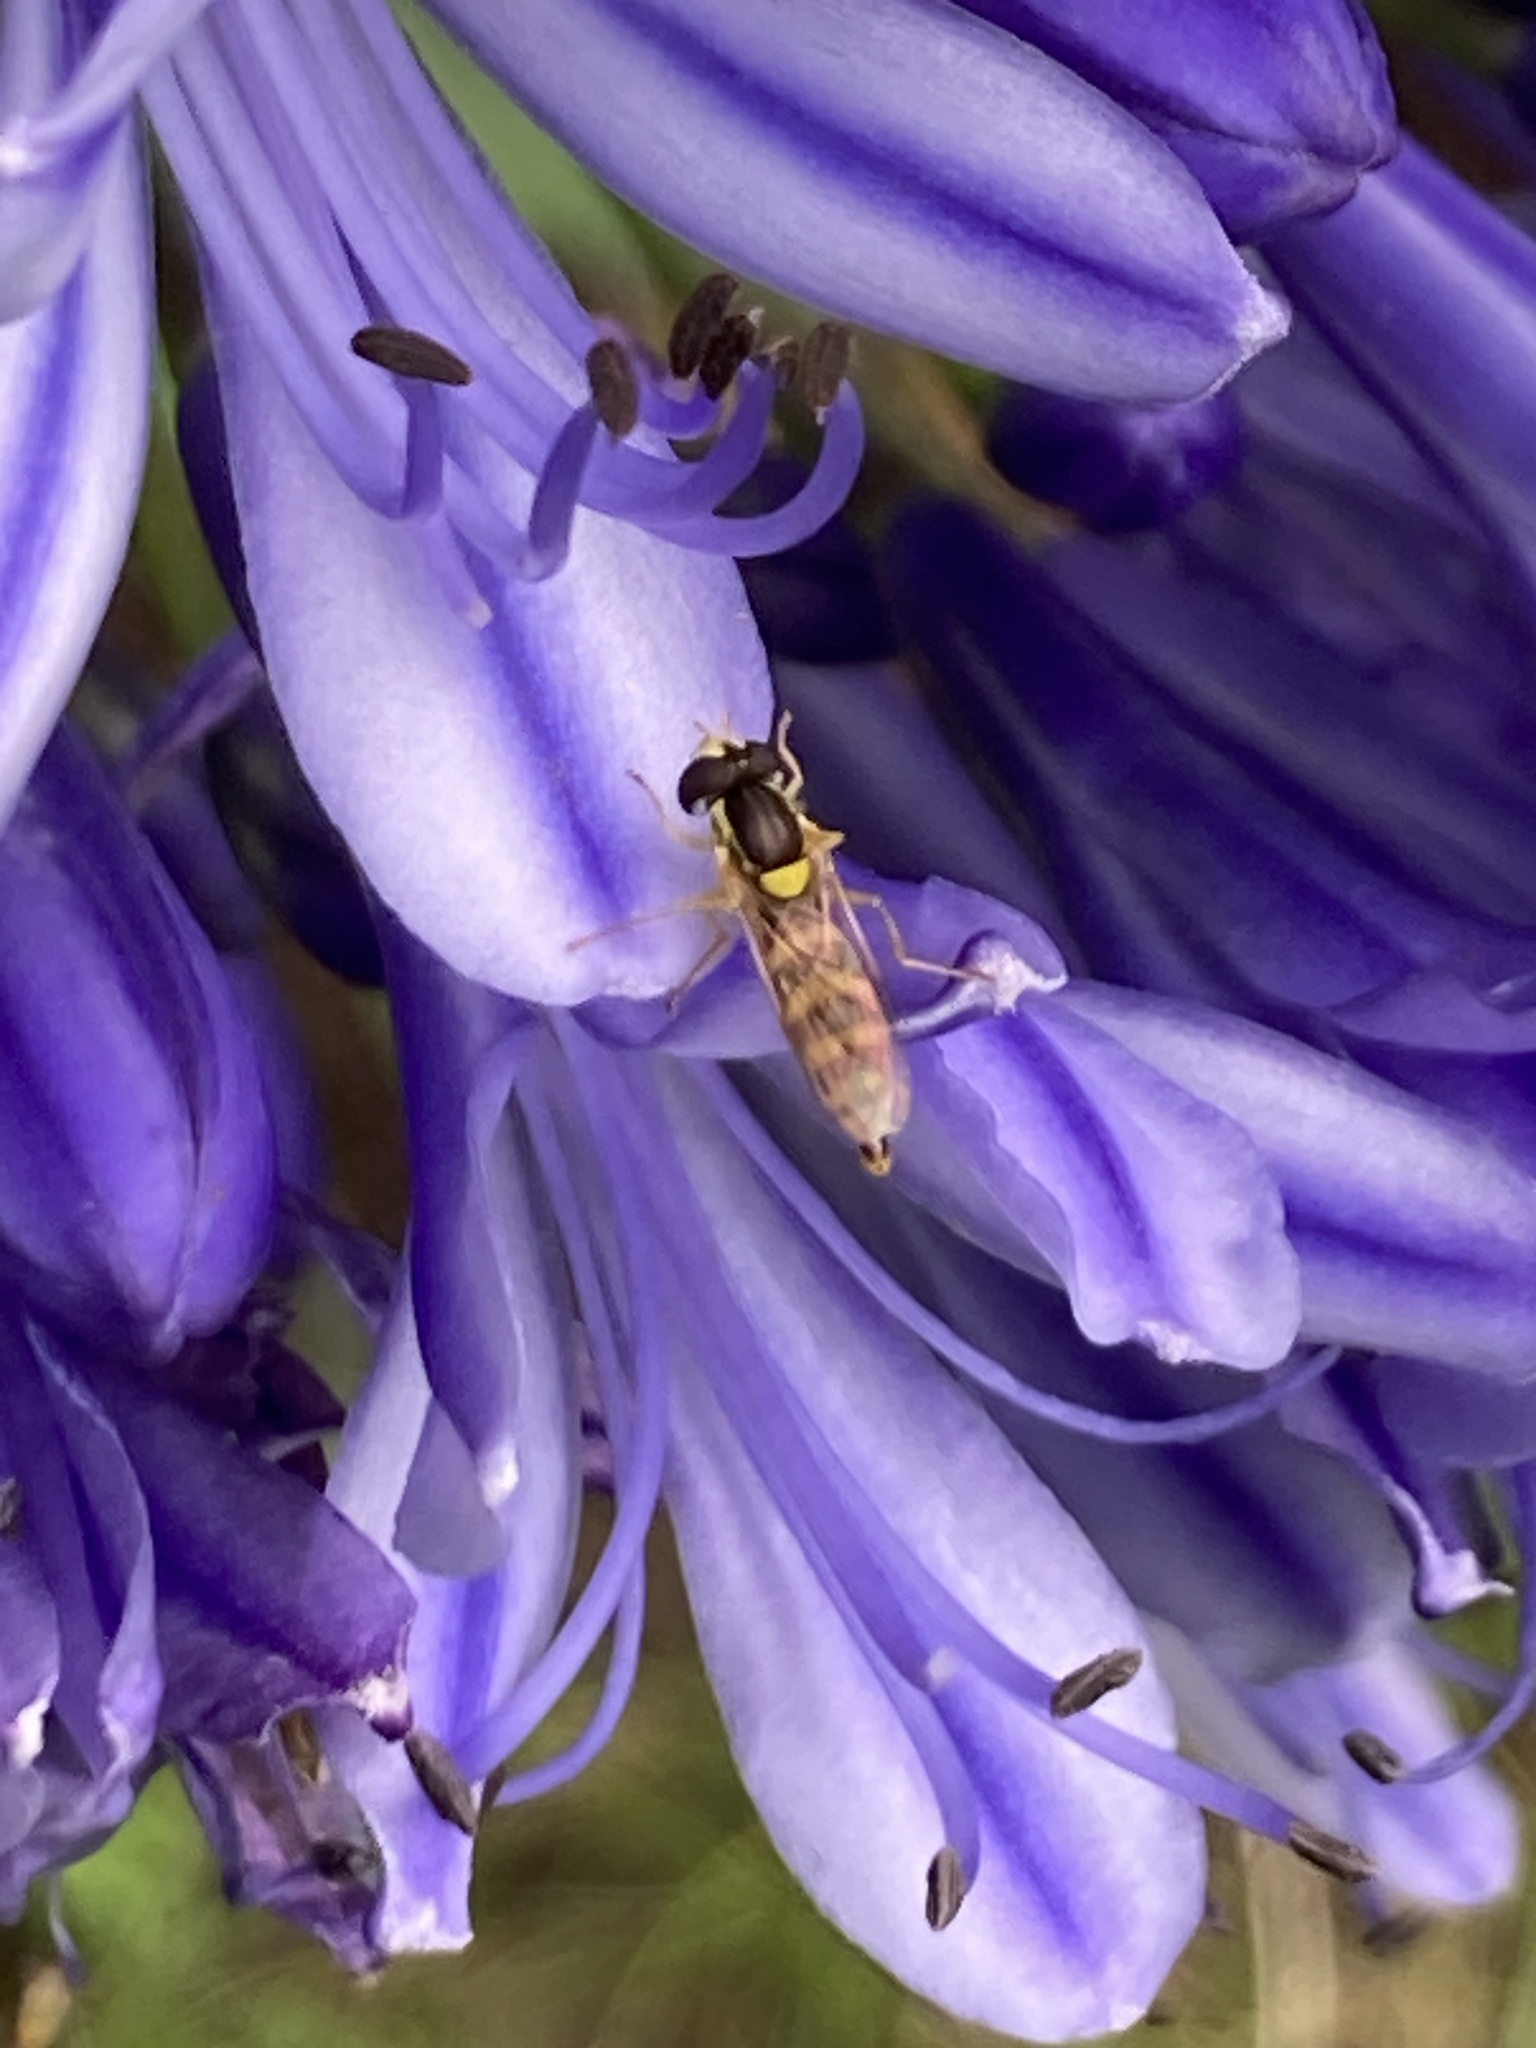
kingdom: Animalia
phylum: Arthropoda
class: Insecta
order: Diptera
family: Syrphidae
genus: Sphaerophoria
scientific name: Sphaerophoria
